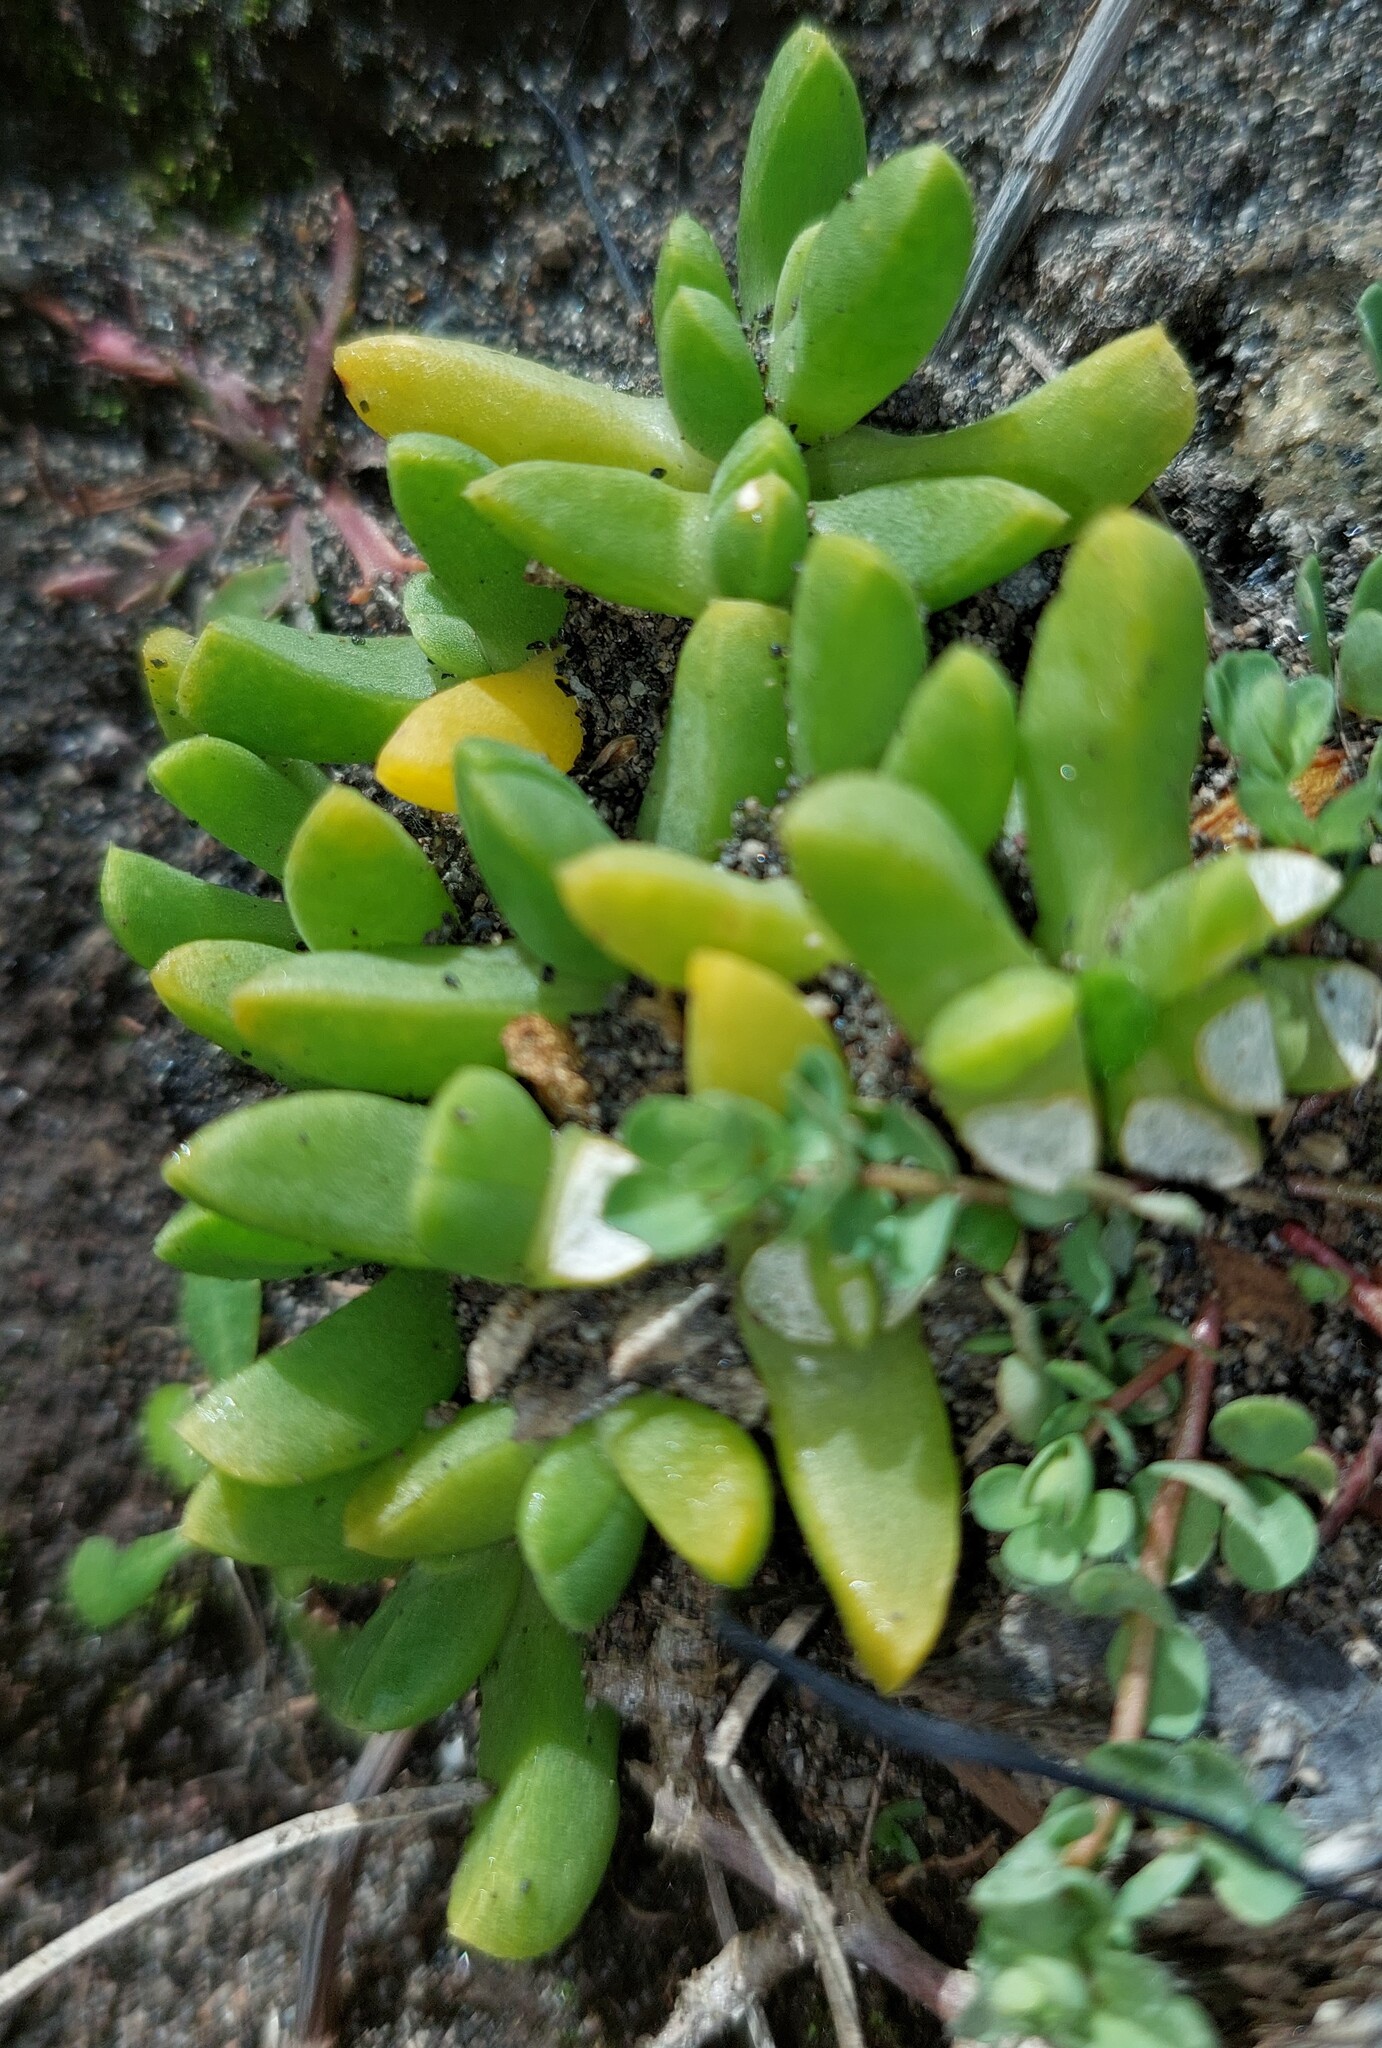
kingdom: Plantae
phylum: Tracheophyta
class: Magnoliopsida
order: Caryophyllales
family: Aizoaceae
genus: Disphyma
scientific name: Disphyma australe
